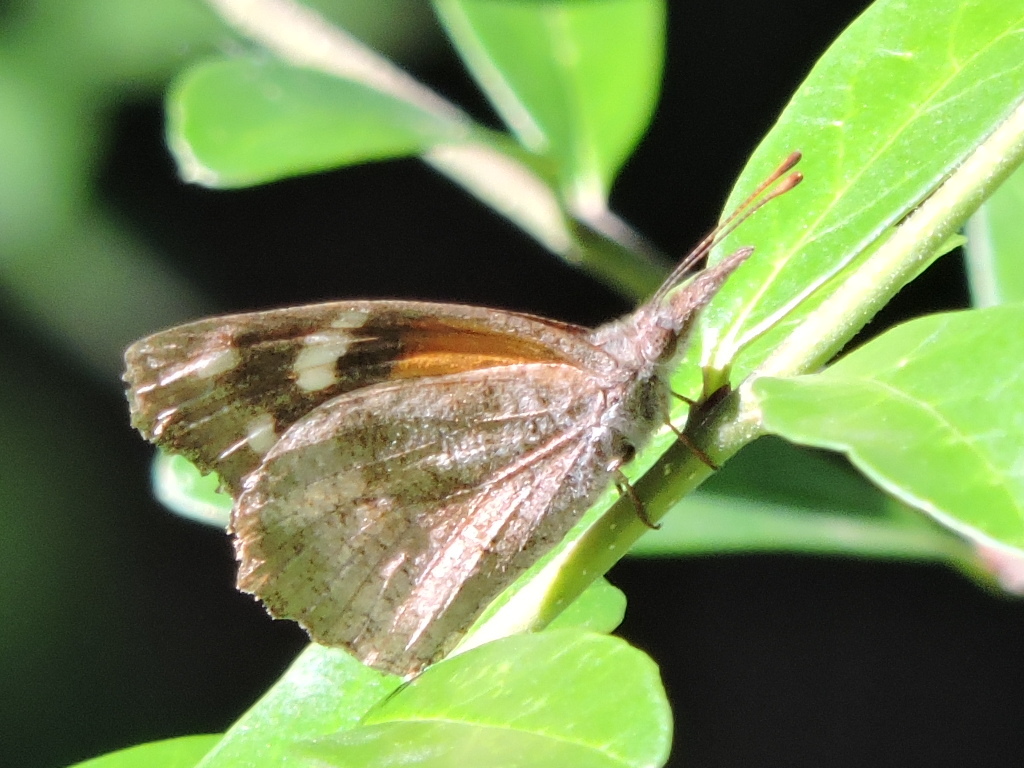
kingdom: Animalia
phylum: Arthropoda
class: Insecta
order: Lepidoptera
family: Nymphalidae
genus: Libytheana
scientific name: Libytheana carinenta
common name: American snout
